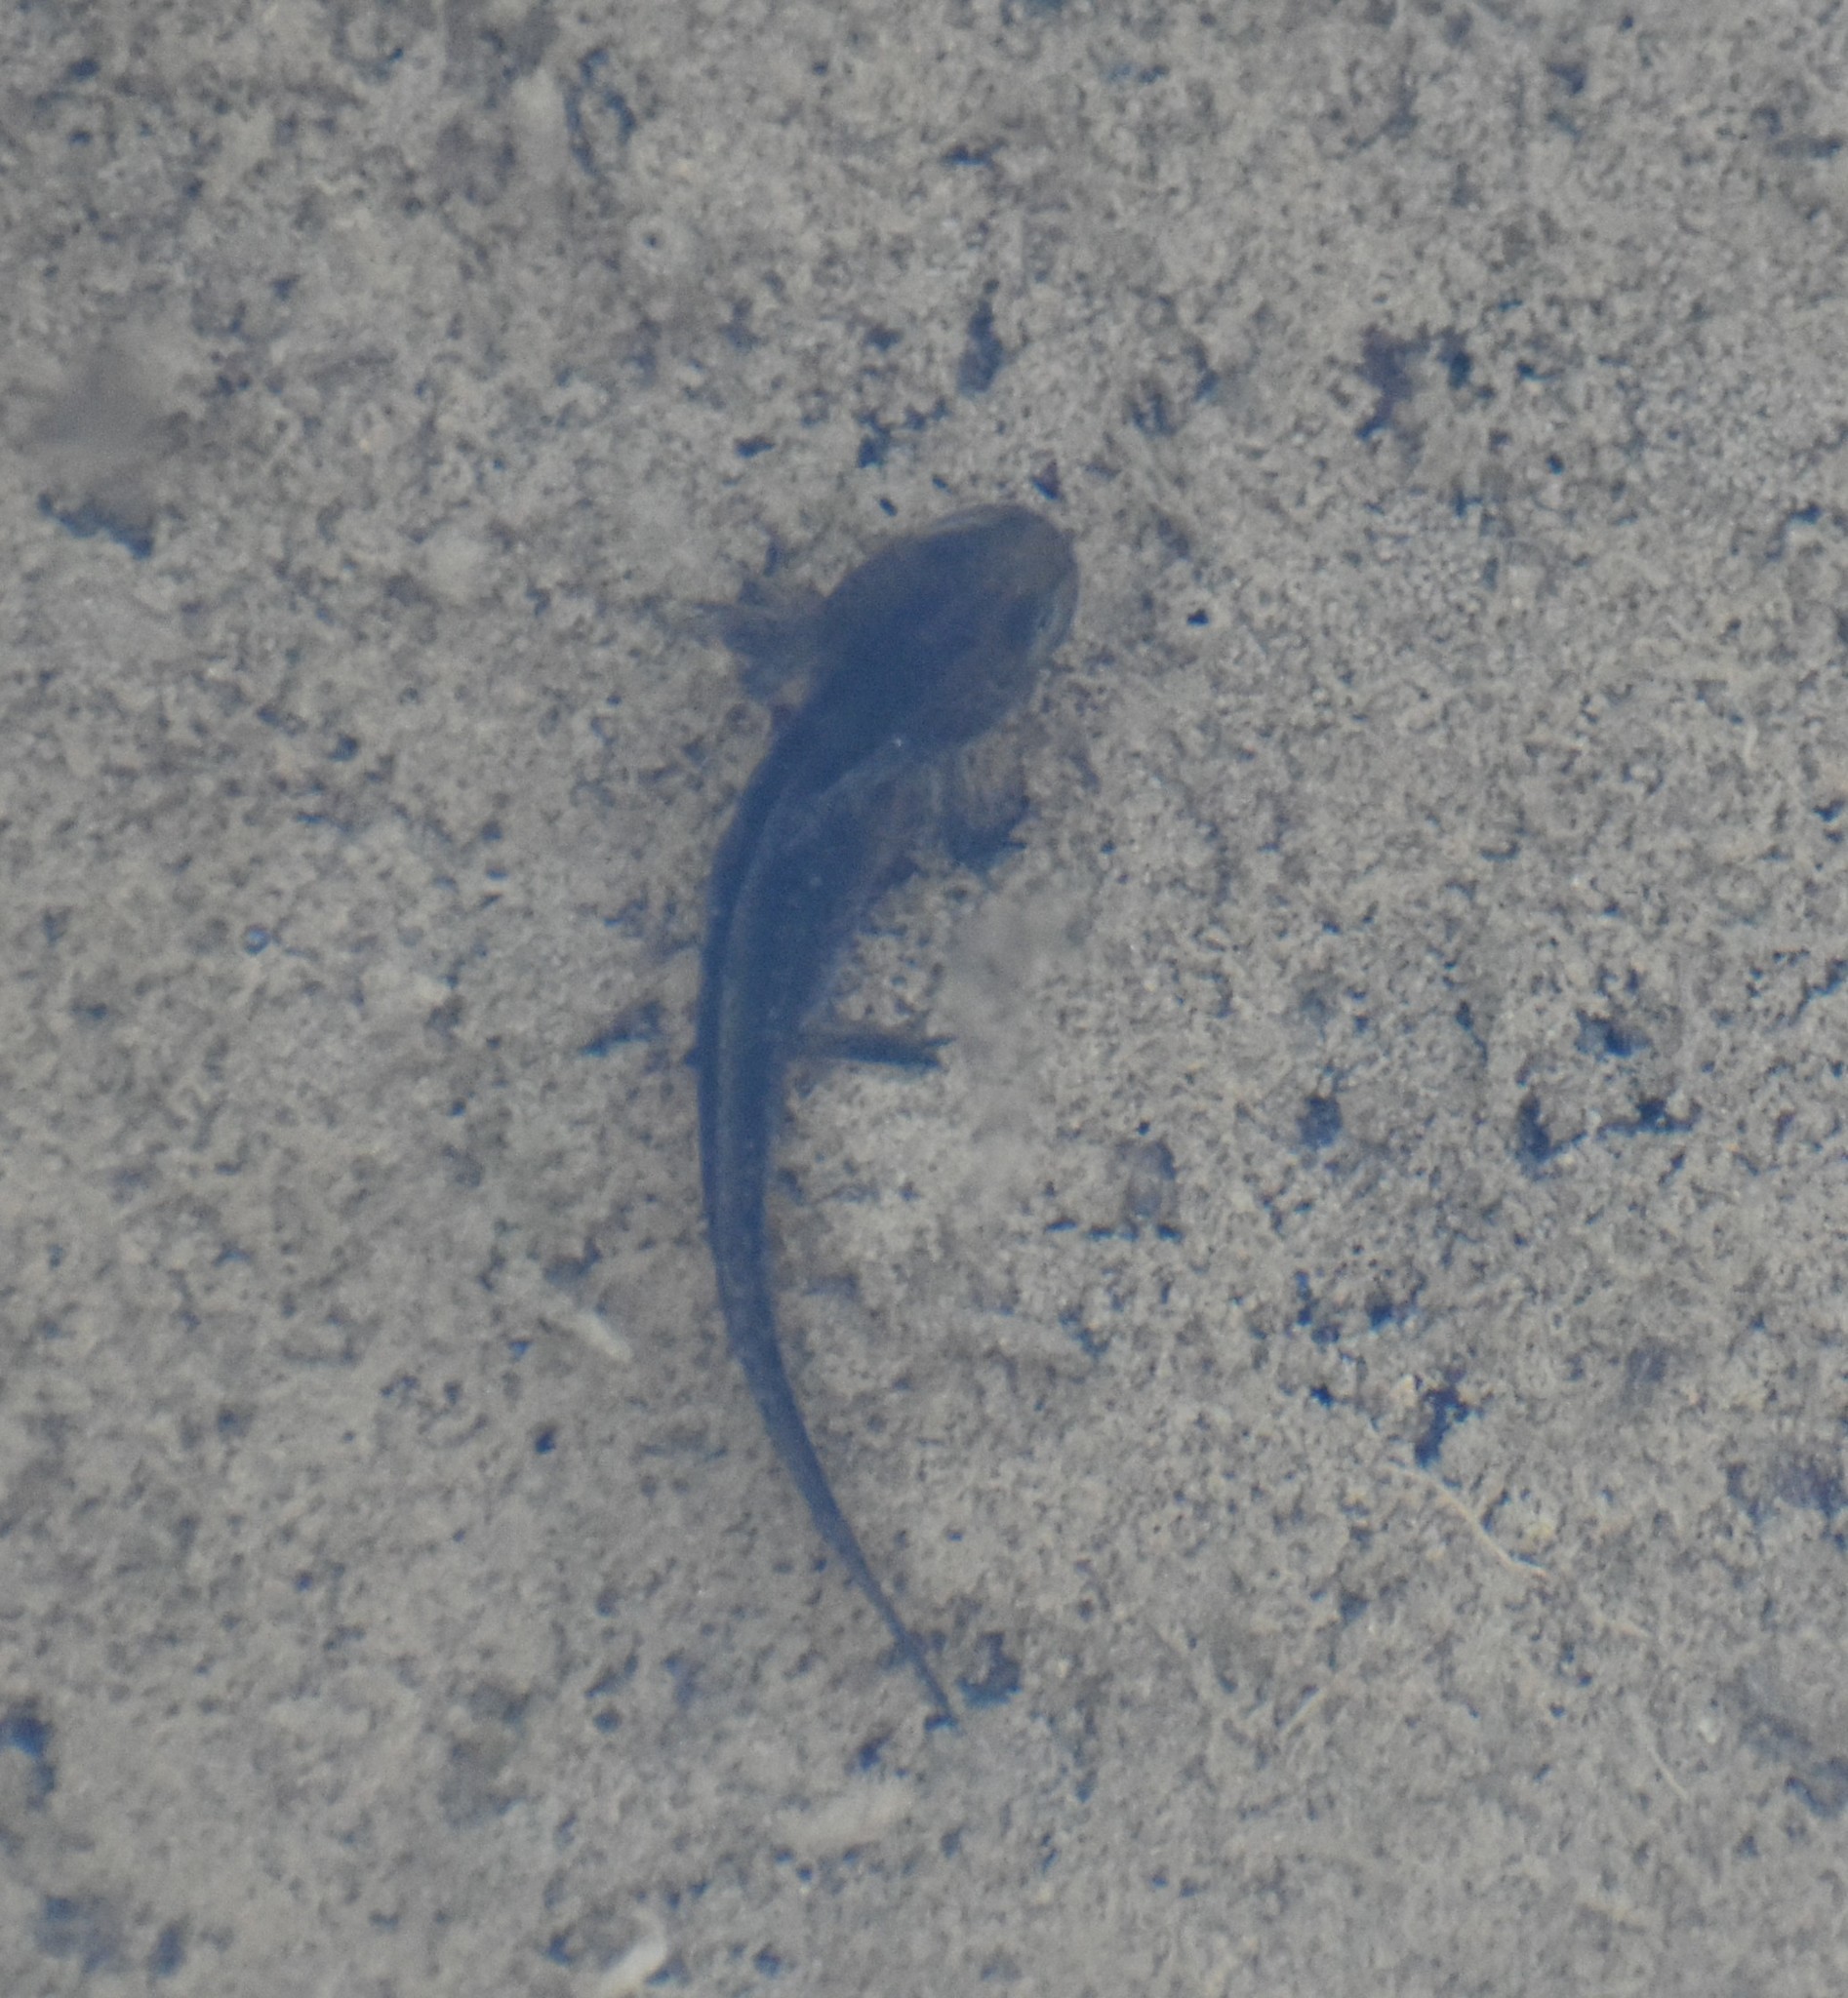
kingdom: Animalia
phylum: Chordata
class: Amphibia
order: Caudata
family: Salamandridae
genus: Ichthyosaura
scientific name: Ichthyosaura alpestris
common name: Alpine newt
